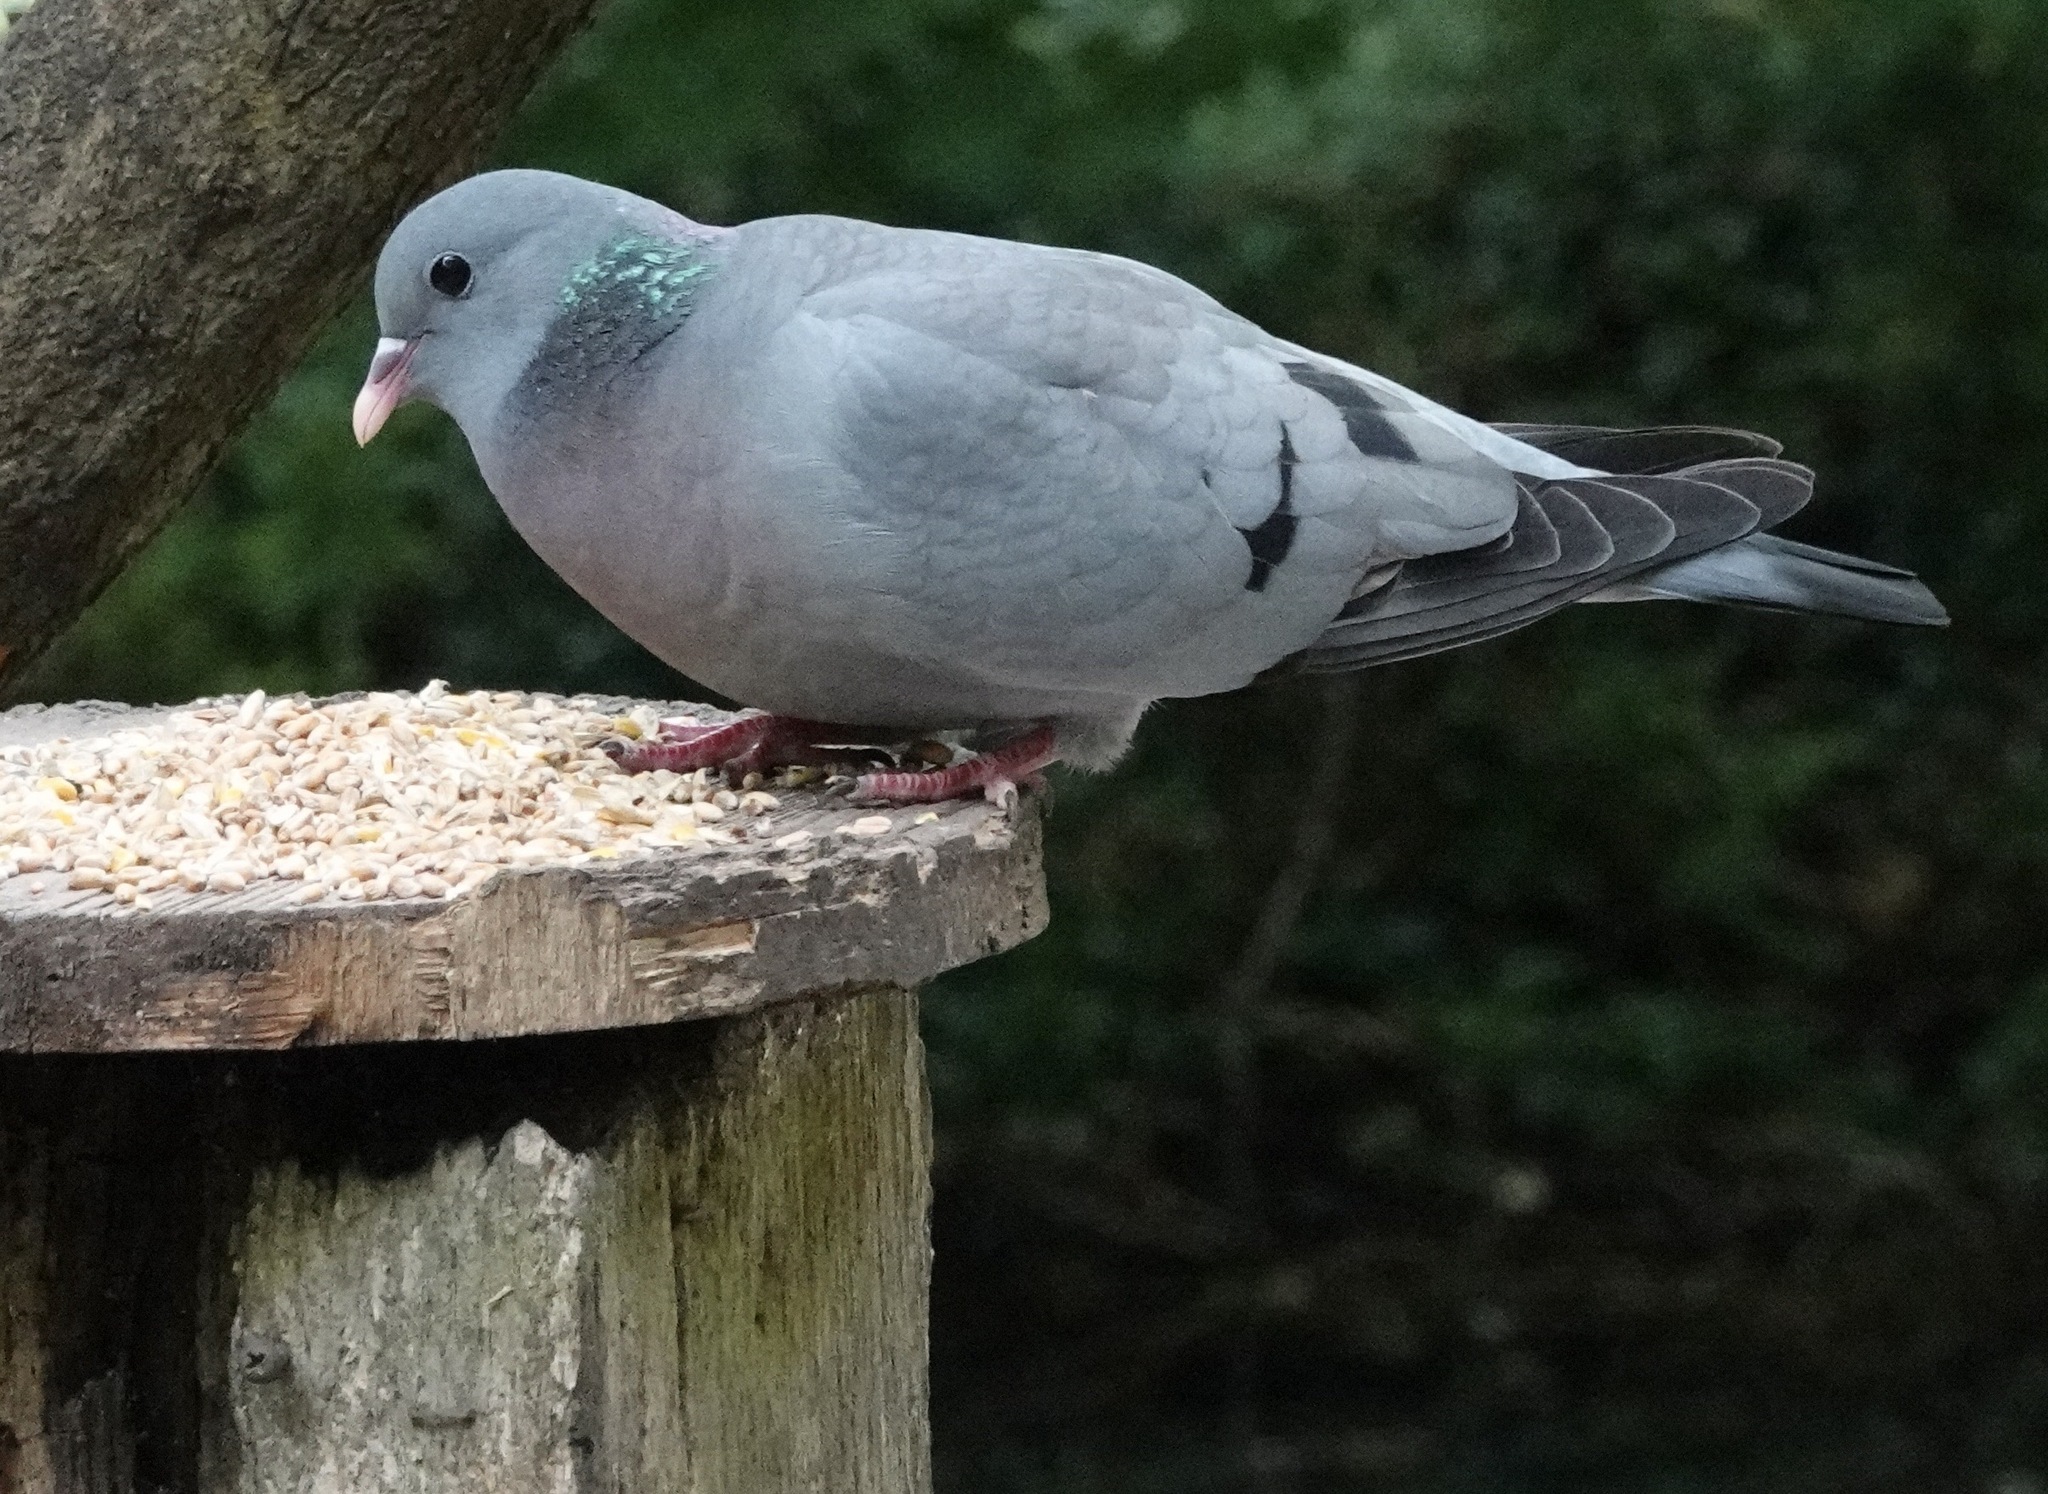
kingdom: Animalia
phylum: Chordata
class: Aves
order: Columbiformes
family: Columbidae
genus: Columba
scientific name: Columba oenas
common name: Stock dove
